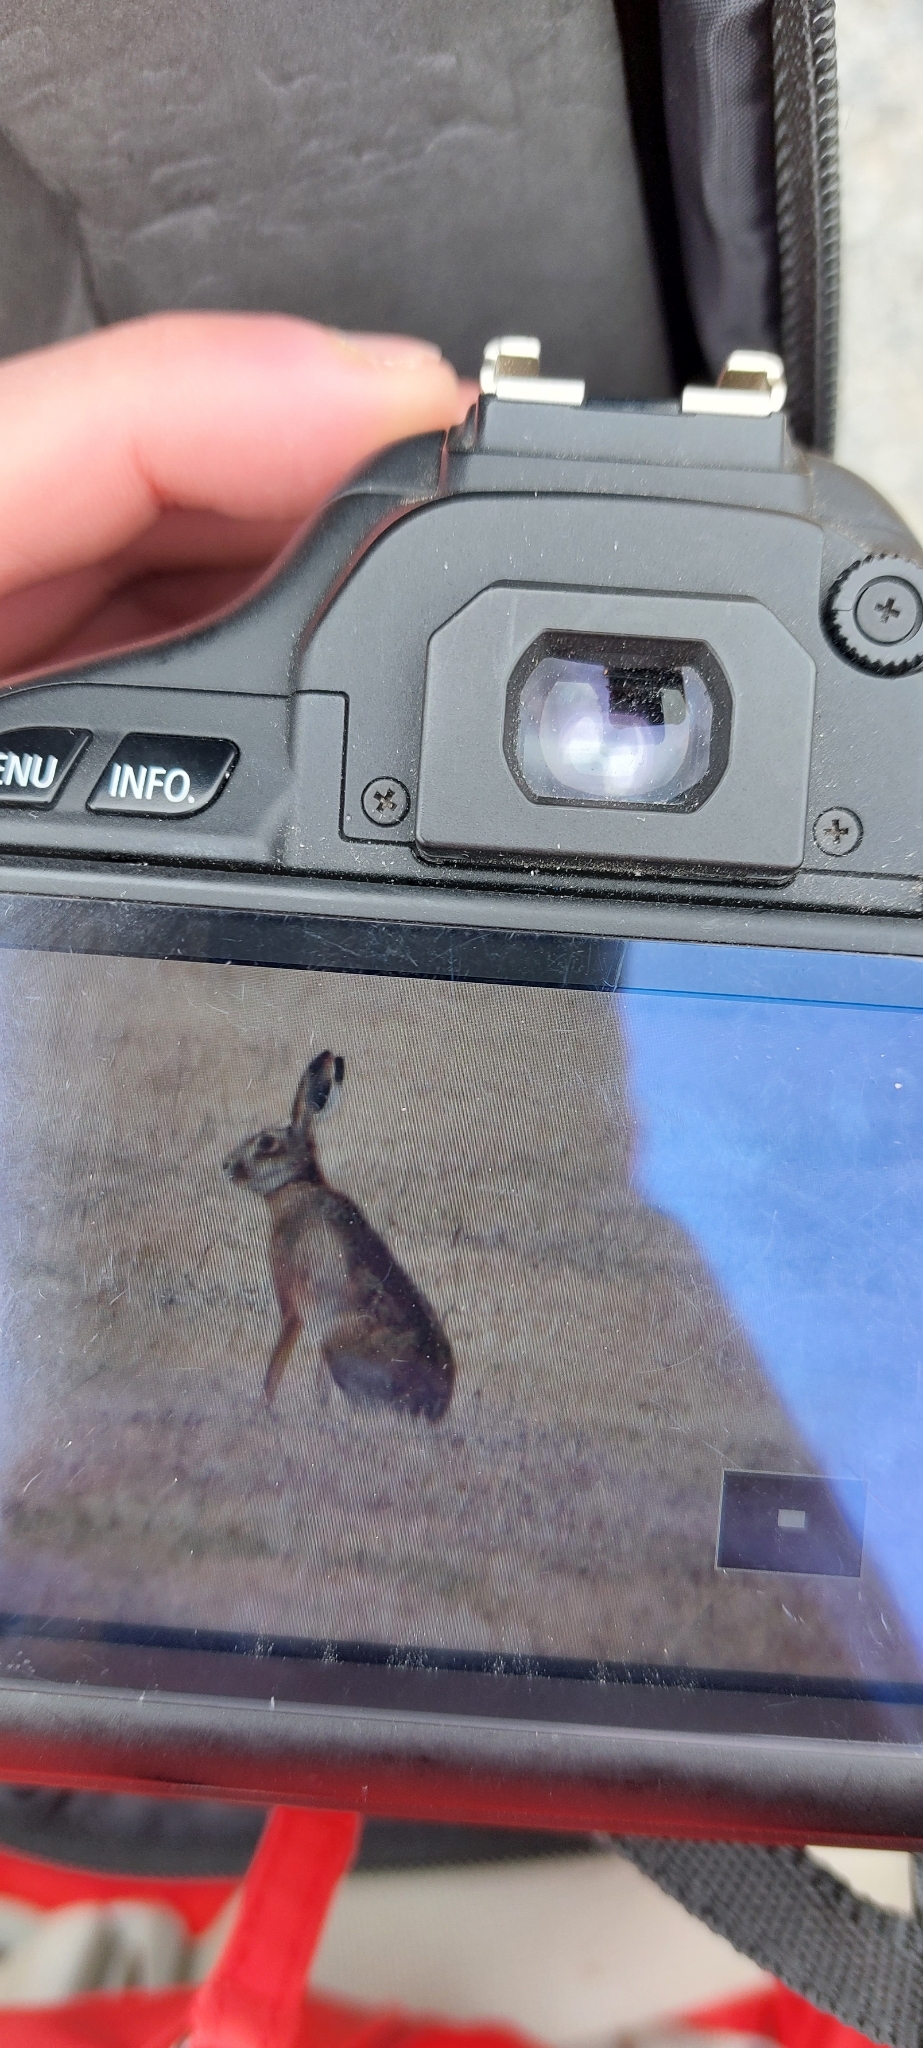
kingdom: Animalia
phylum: Chordata
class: Mammalia
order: Lagomorpha
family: Leporidae
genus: Lepus
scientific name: Lepus europaeus
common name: European hare
